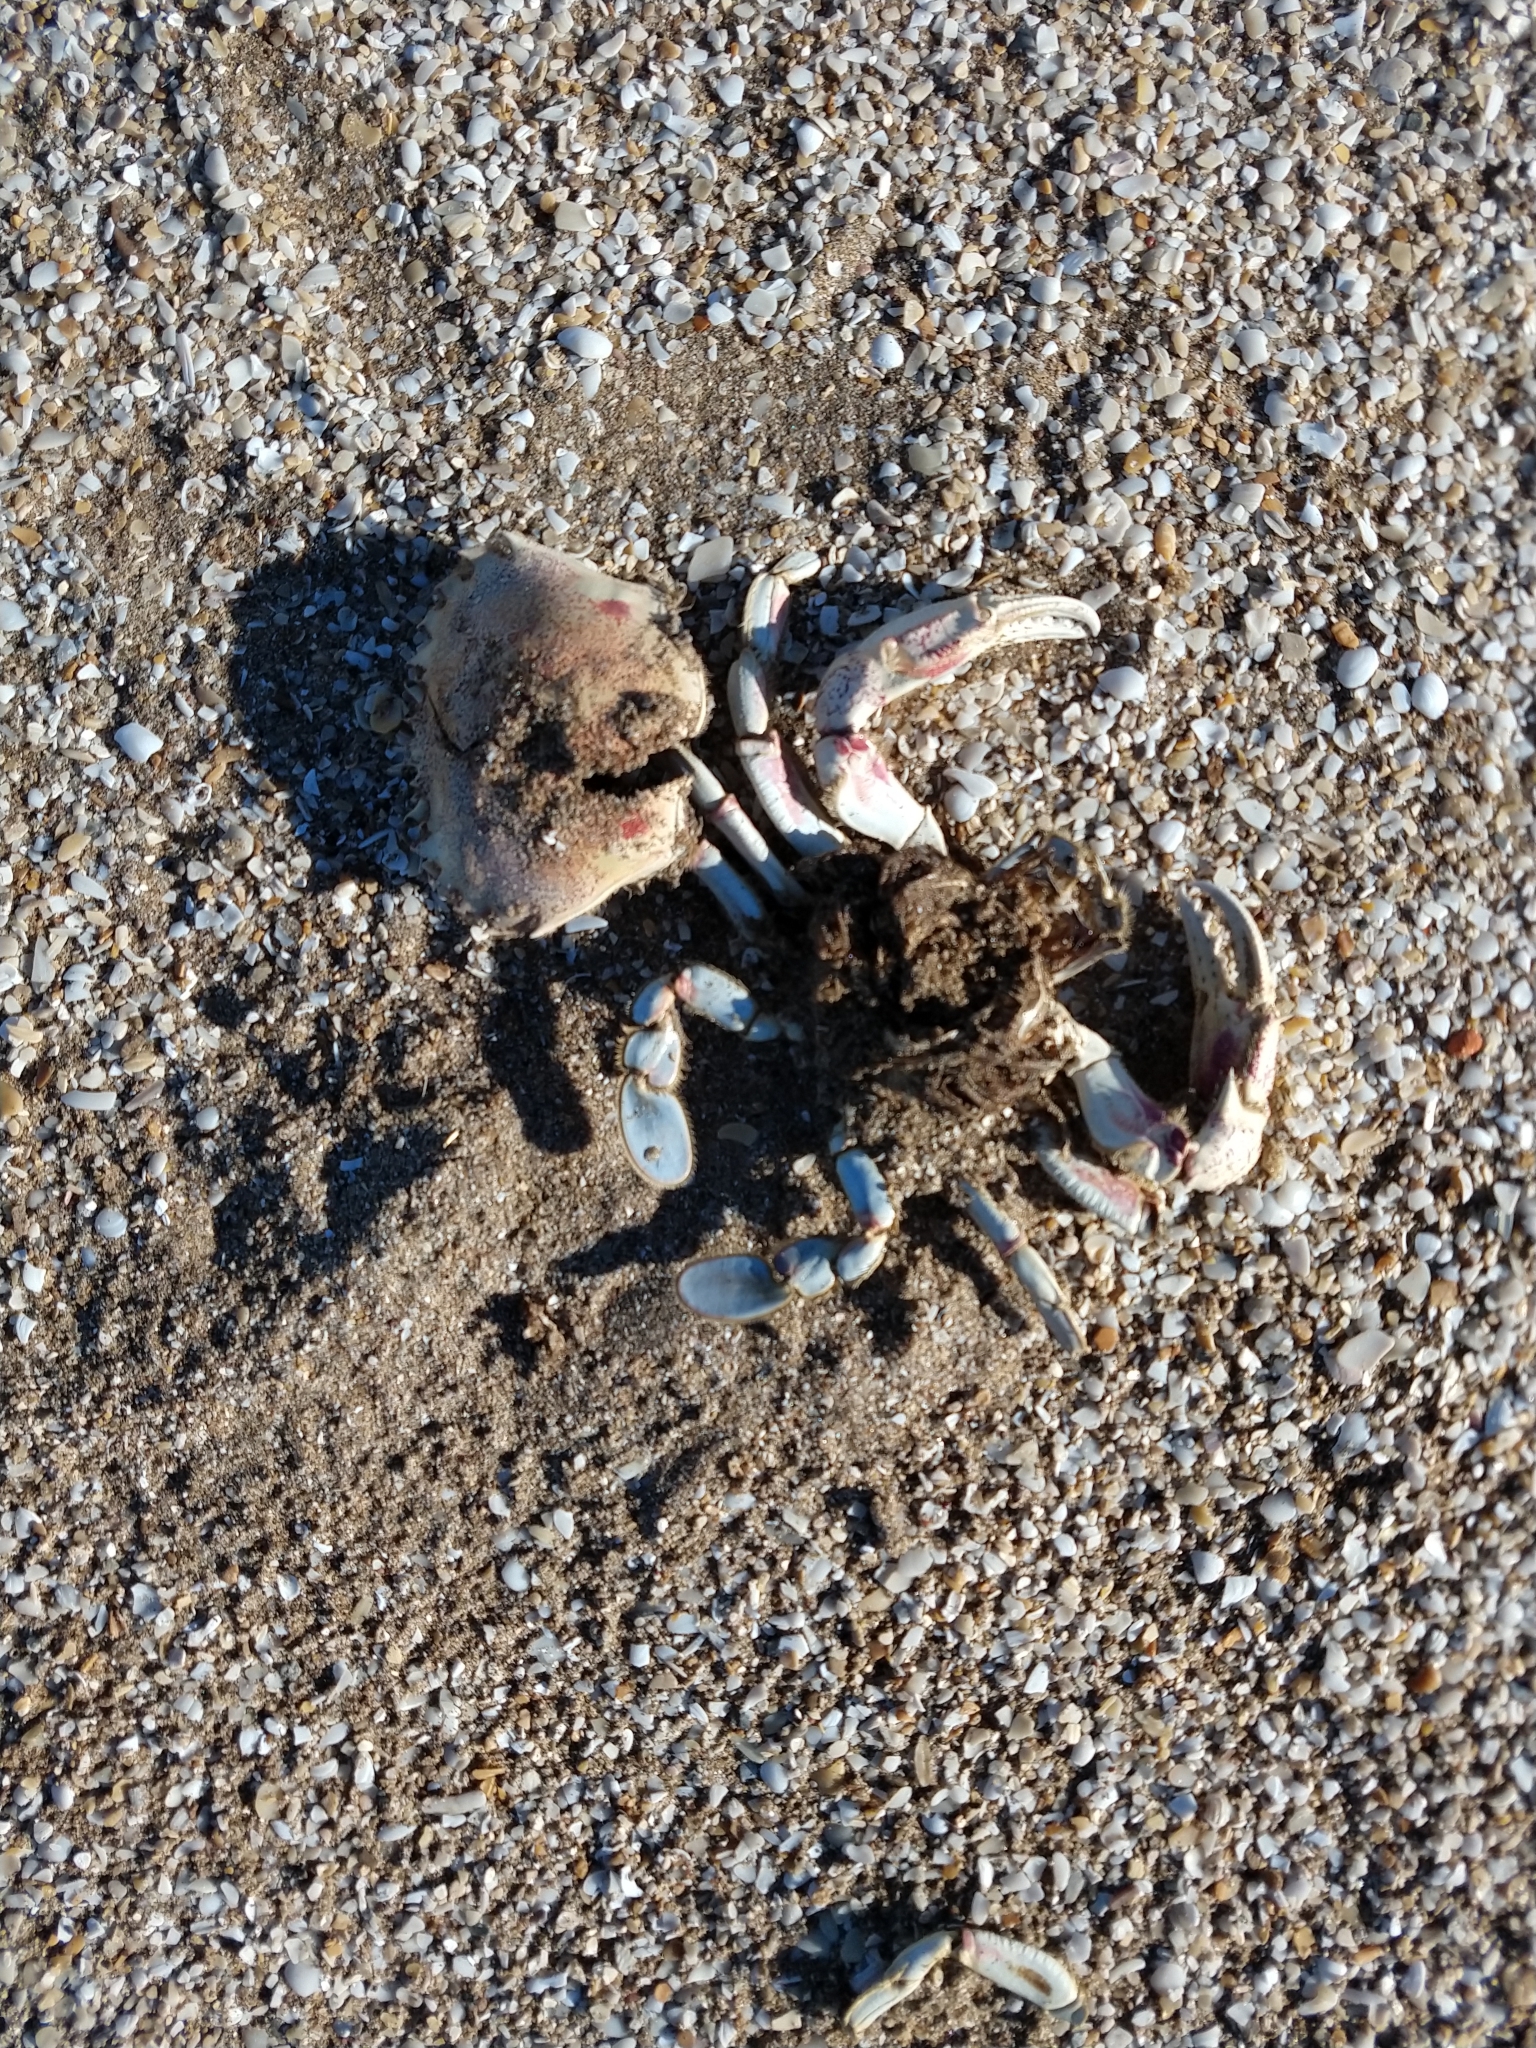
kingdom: Animalia
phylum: Arthropoda
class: Malacostraca
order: Decapoda
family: Ovalipidae
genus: Ovalipes
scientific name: Ovalipes trimaculatus
